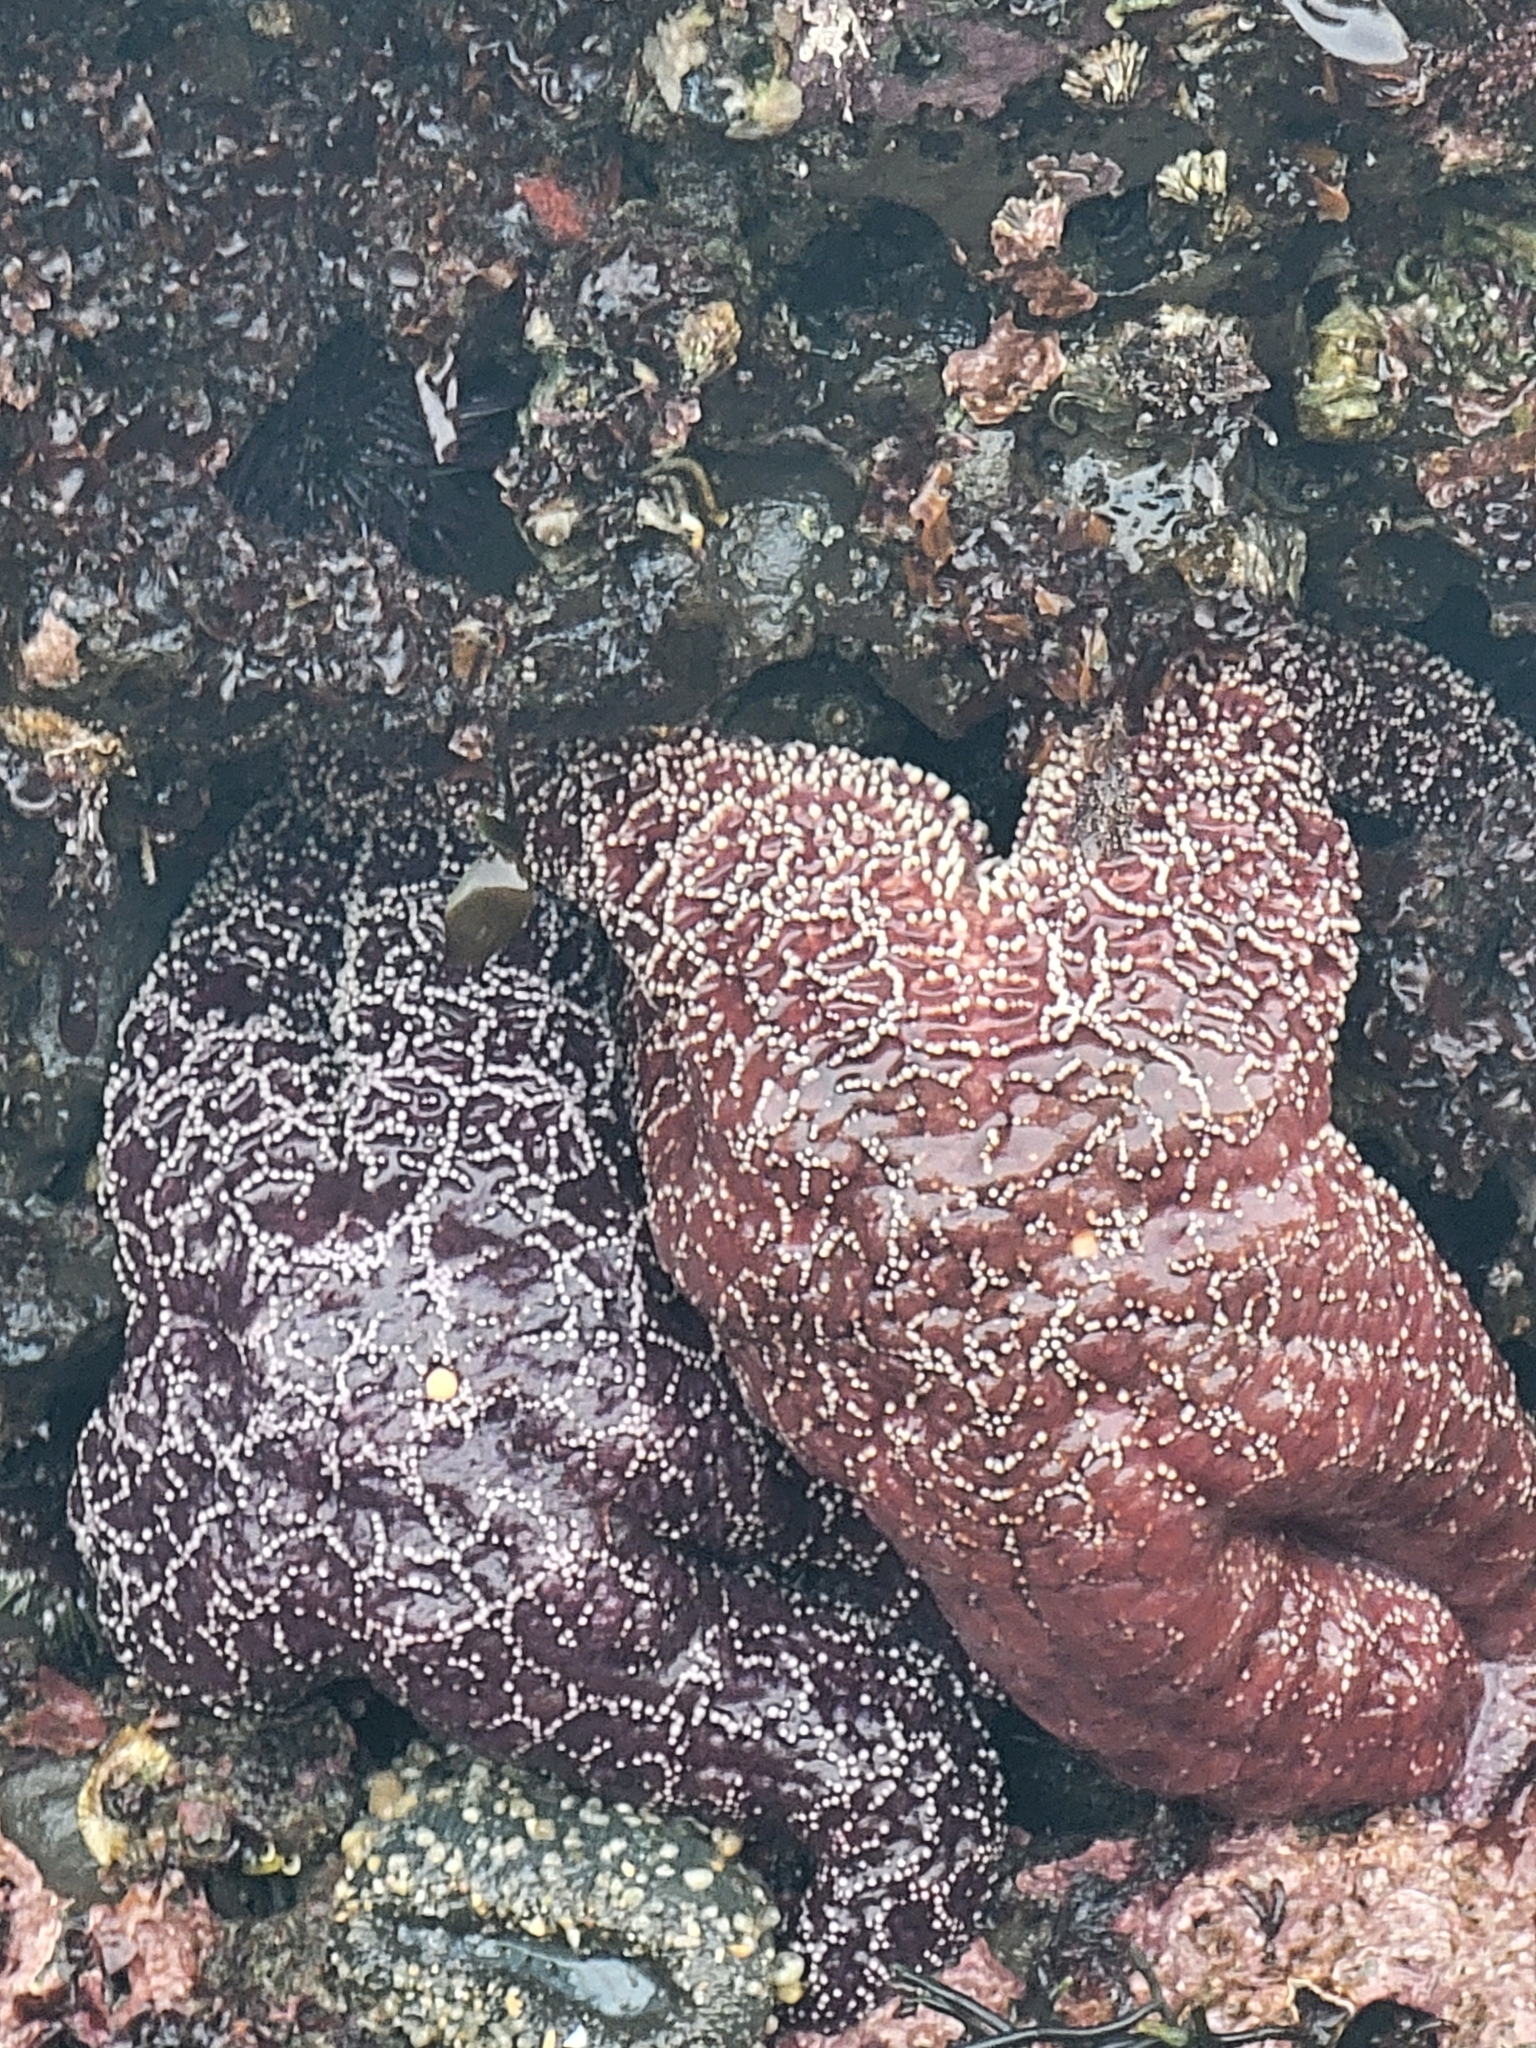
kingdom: Animalia
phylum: Echinodermata
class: Asteroidea
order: Forcipulatida
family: Asteriidae
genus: Pisaster
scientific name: Pisaster ochraceus
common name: Ochre stars
